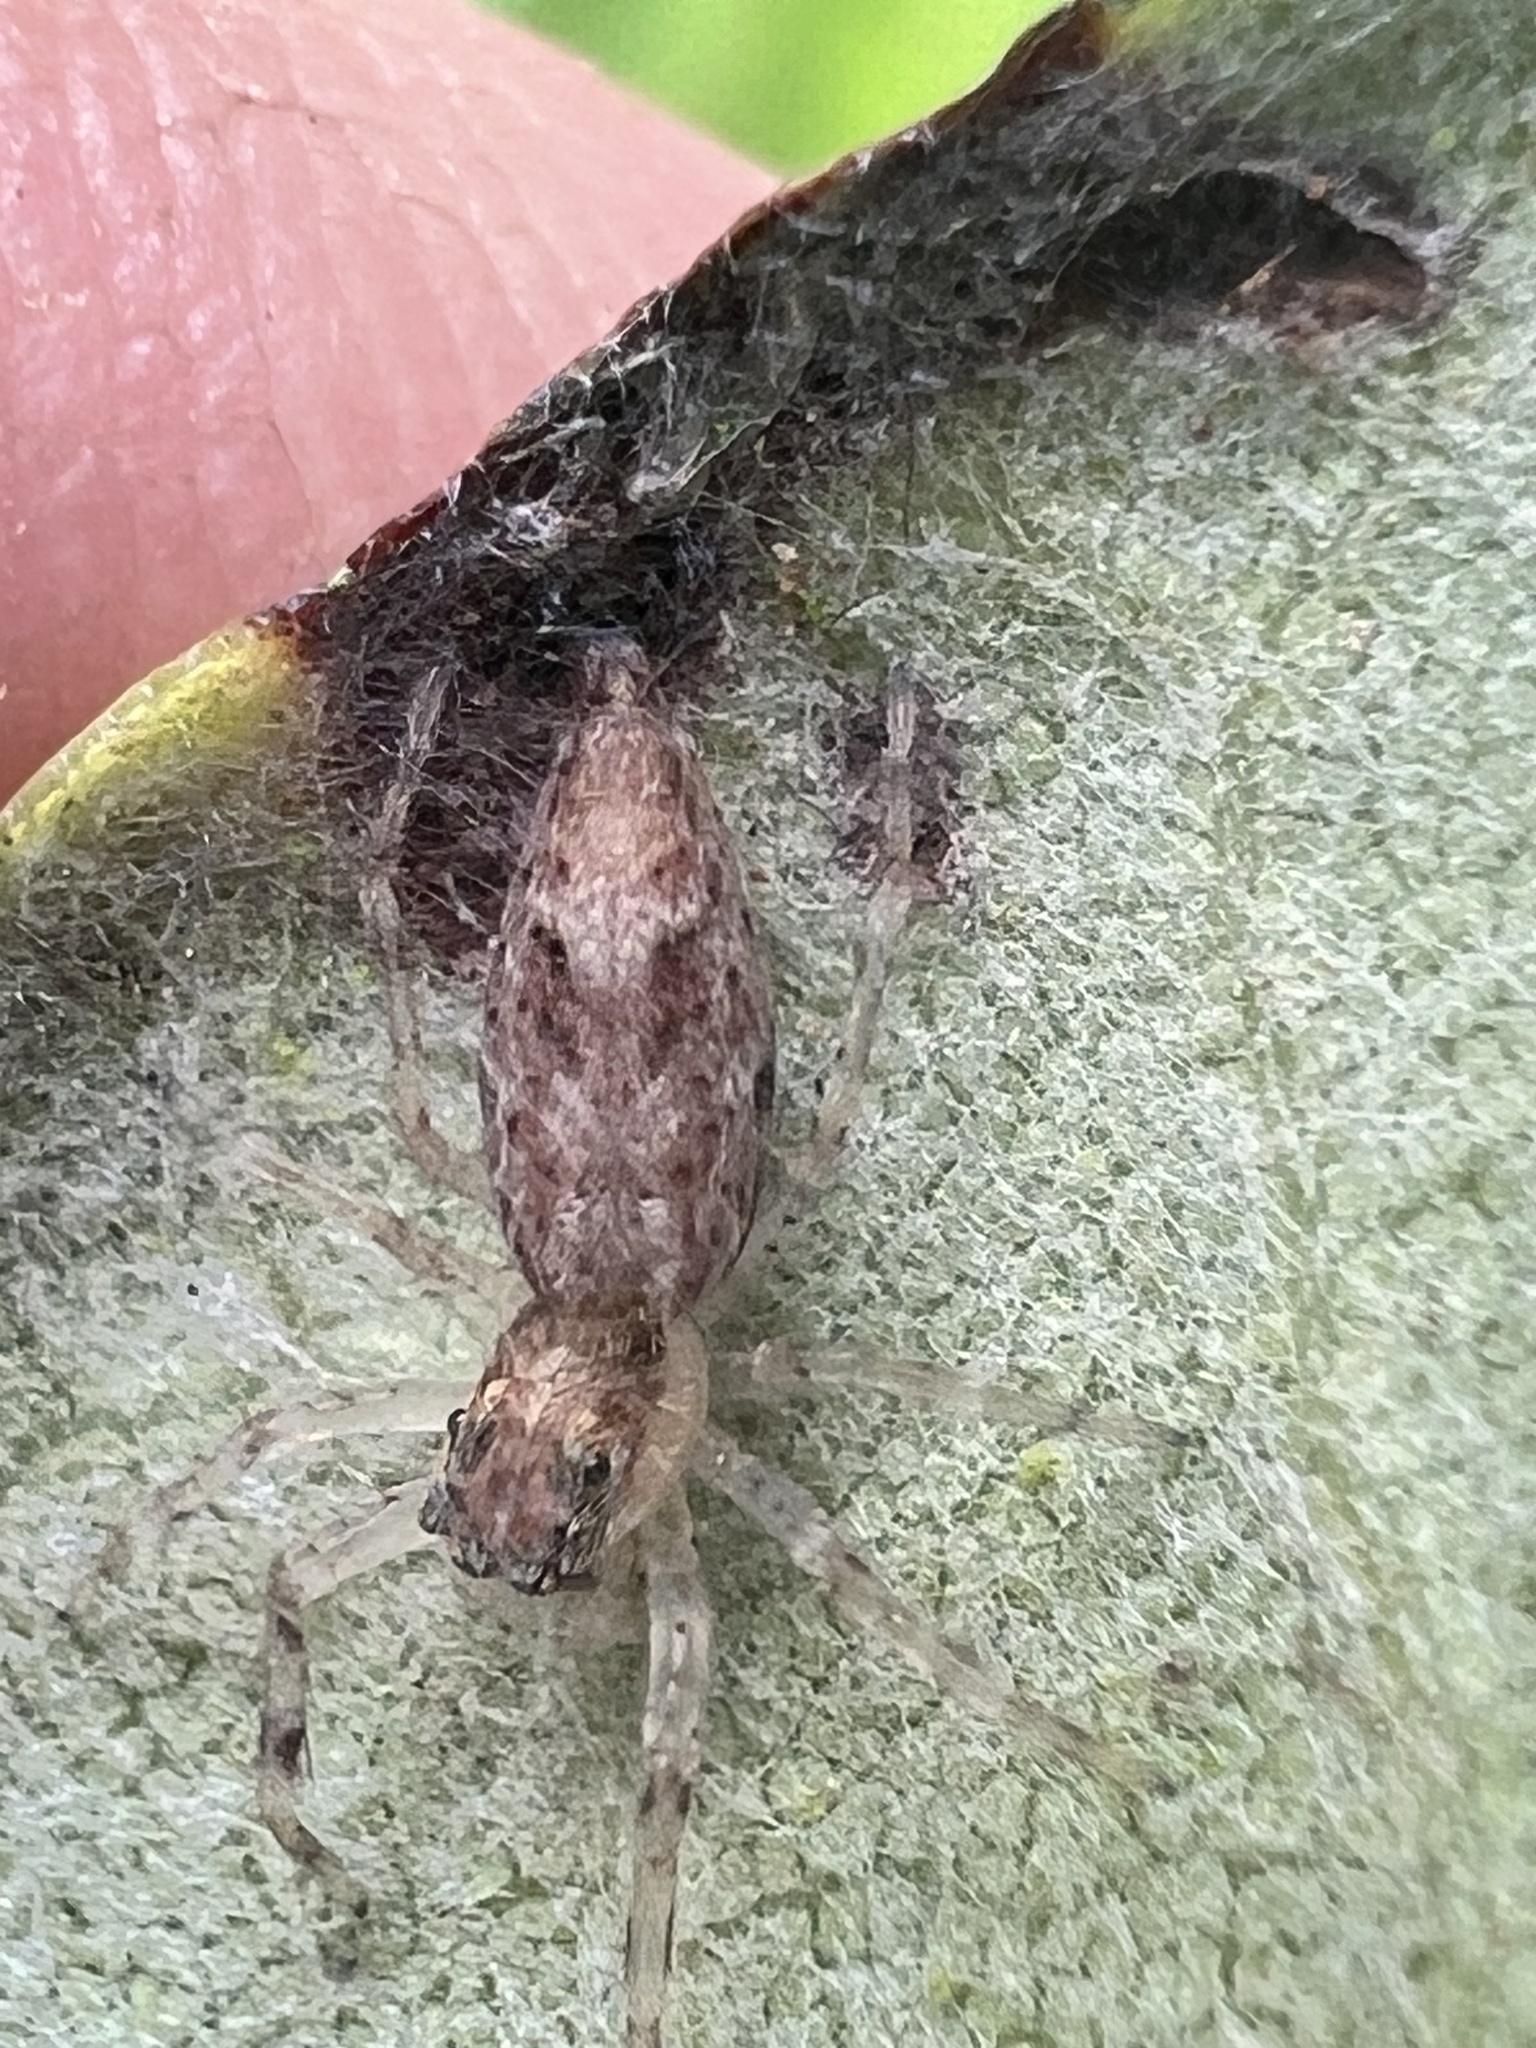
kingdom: Animalia
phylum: Arthropoda
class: Arachnida
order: Araneae
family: Salticidae
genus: Helpis
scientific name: Helpis minitabunda
